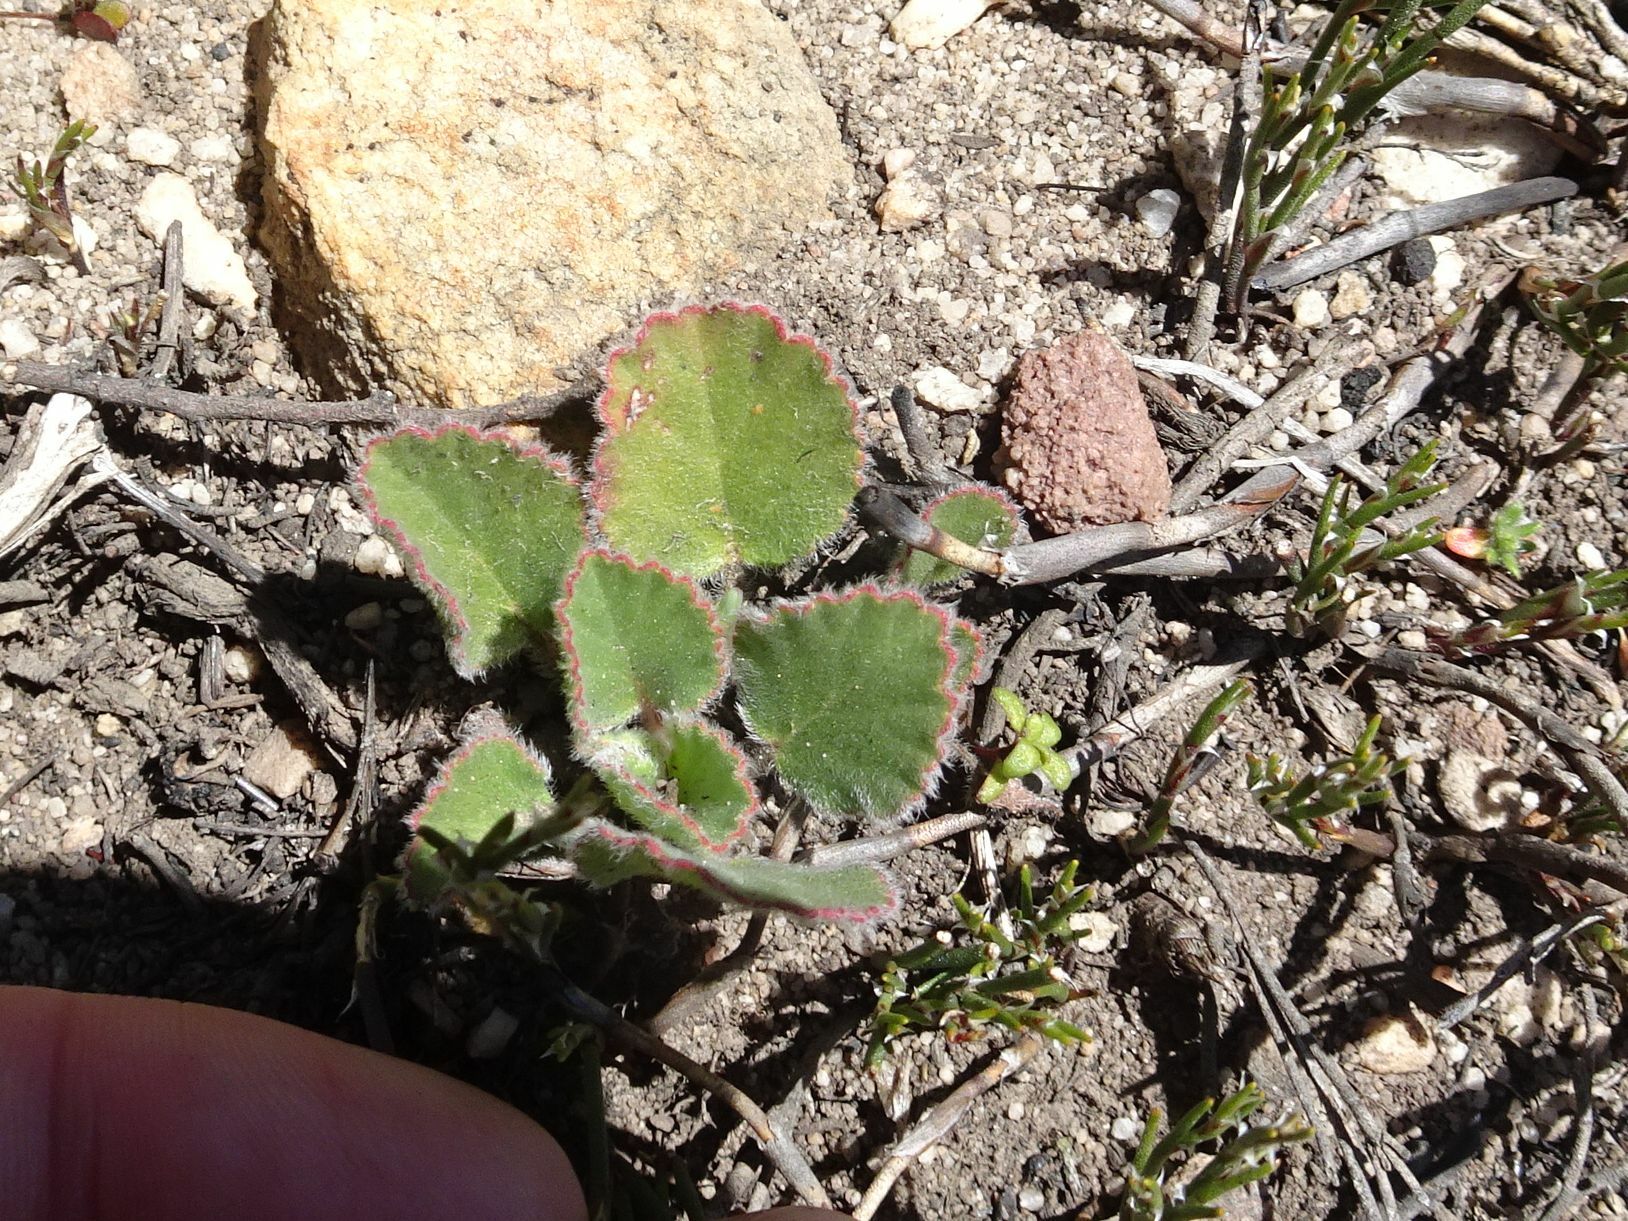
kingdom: Plantae
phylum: Tracheophyta
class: Magnoliopsida
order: Geraniales
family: Geraniaceae
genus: Pelargonium
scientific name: Pelargonium ovale
